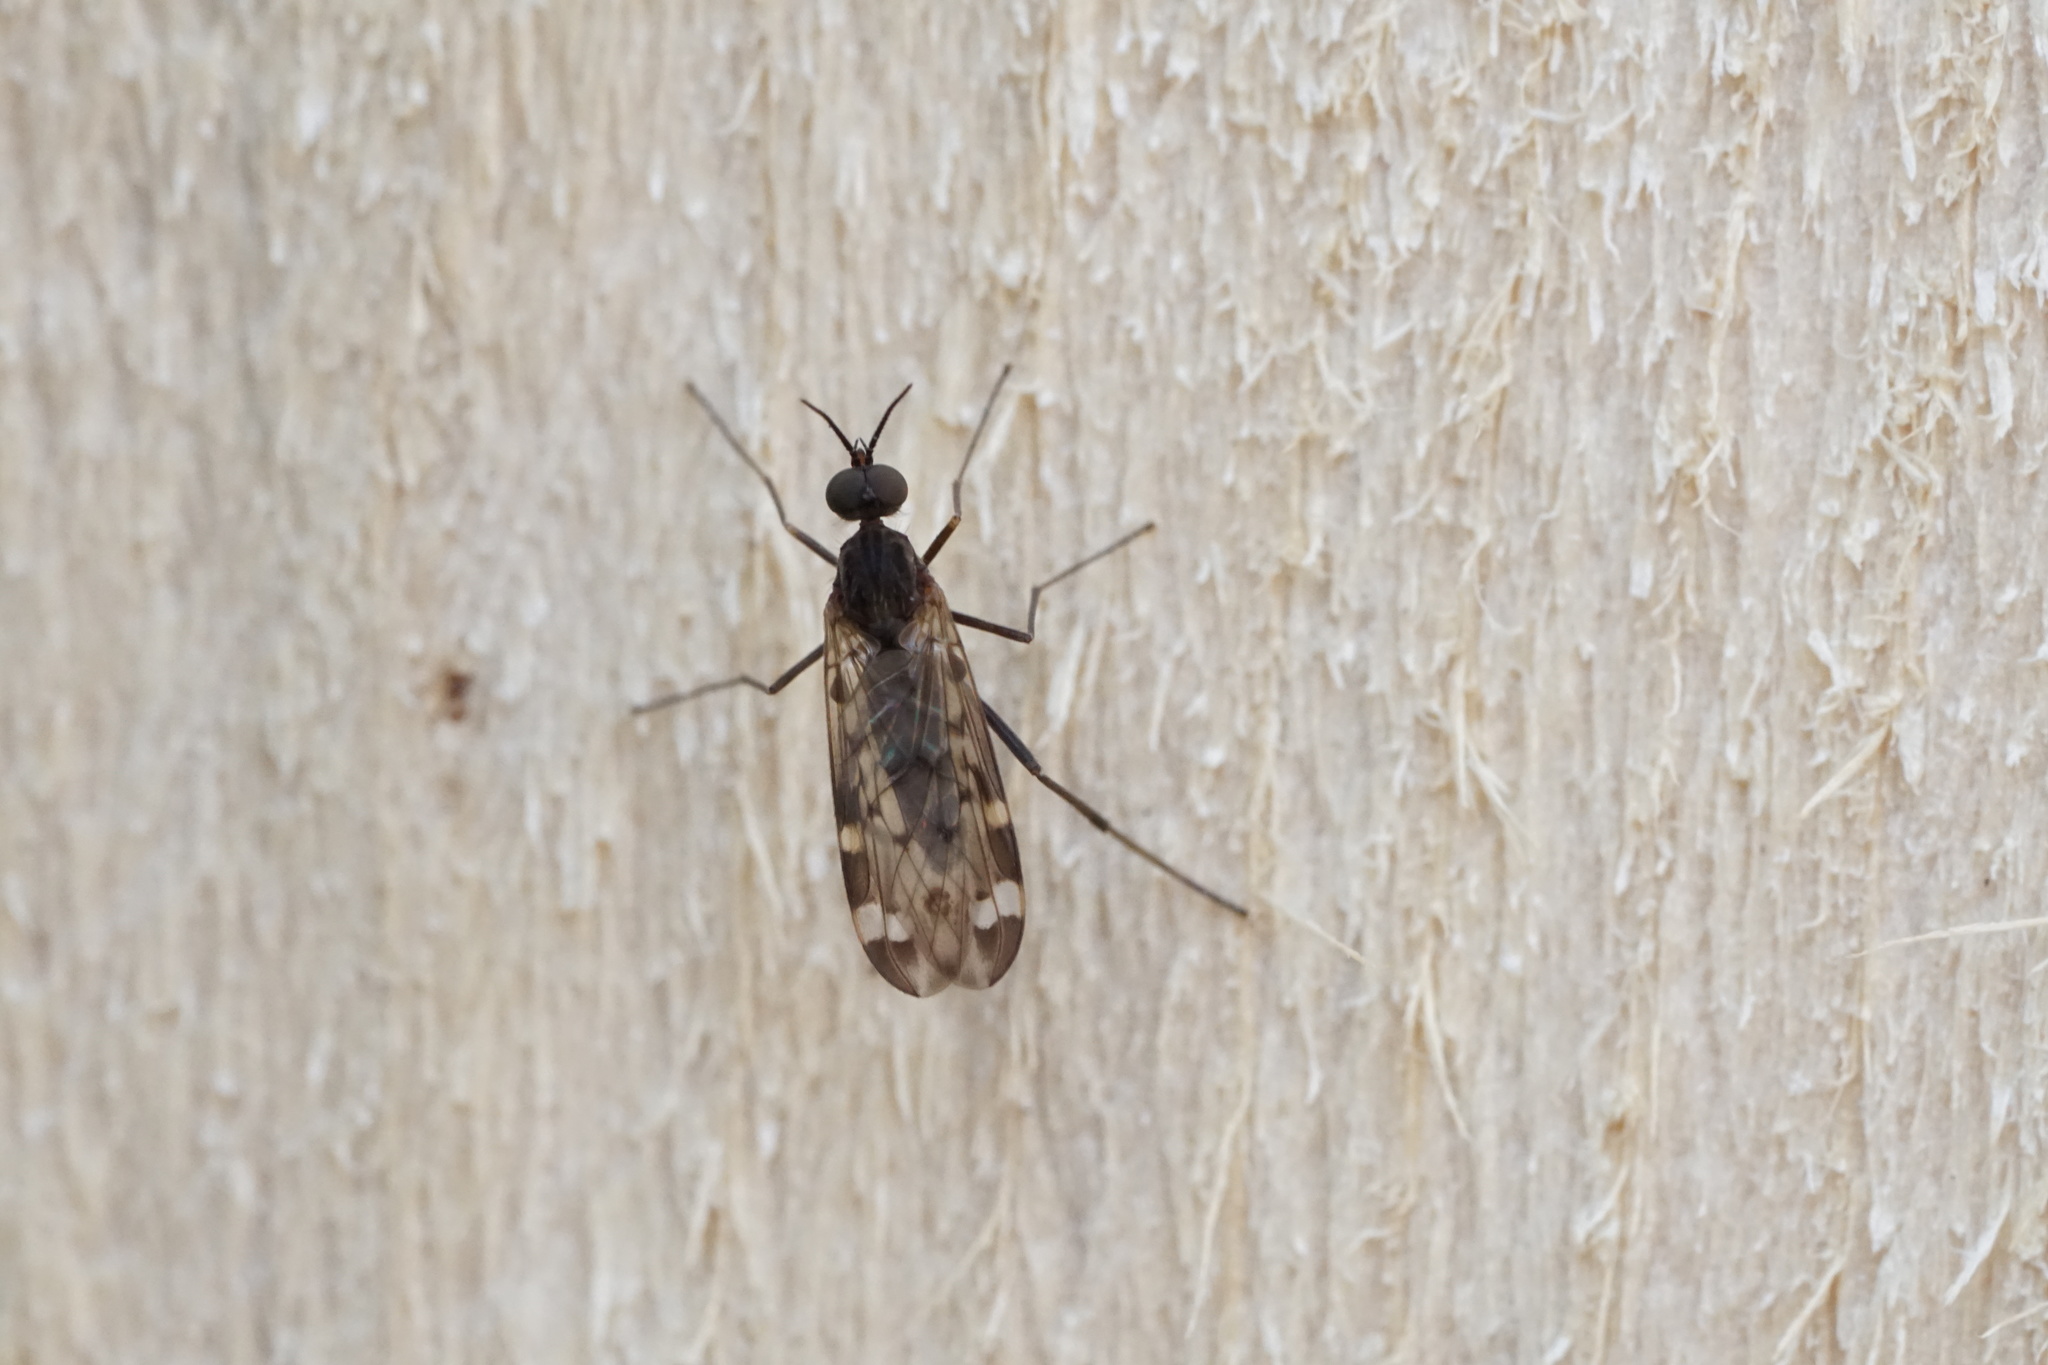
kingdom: Animalia
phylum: Arthropoda
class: Insecta
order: Diptera
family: Anisopodidae
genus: Sylvicola
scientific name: Sylvicola alternata
